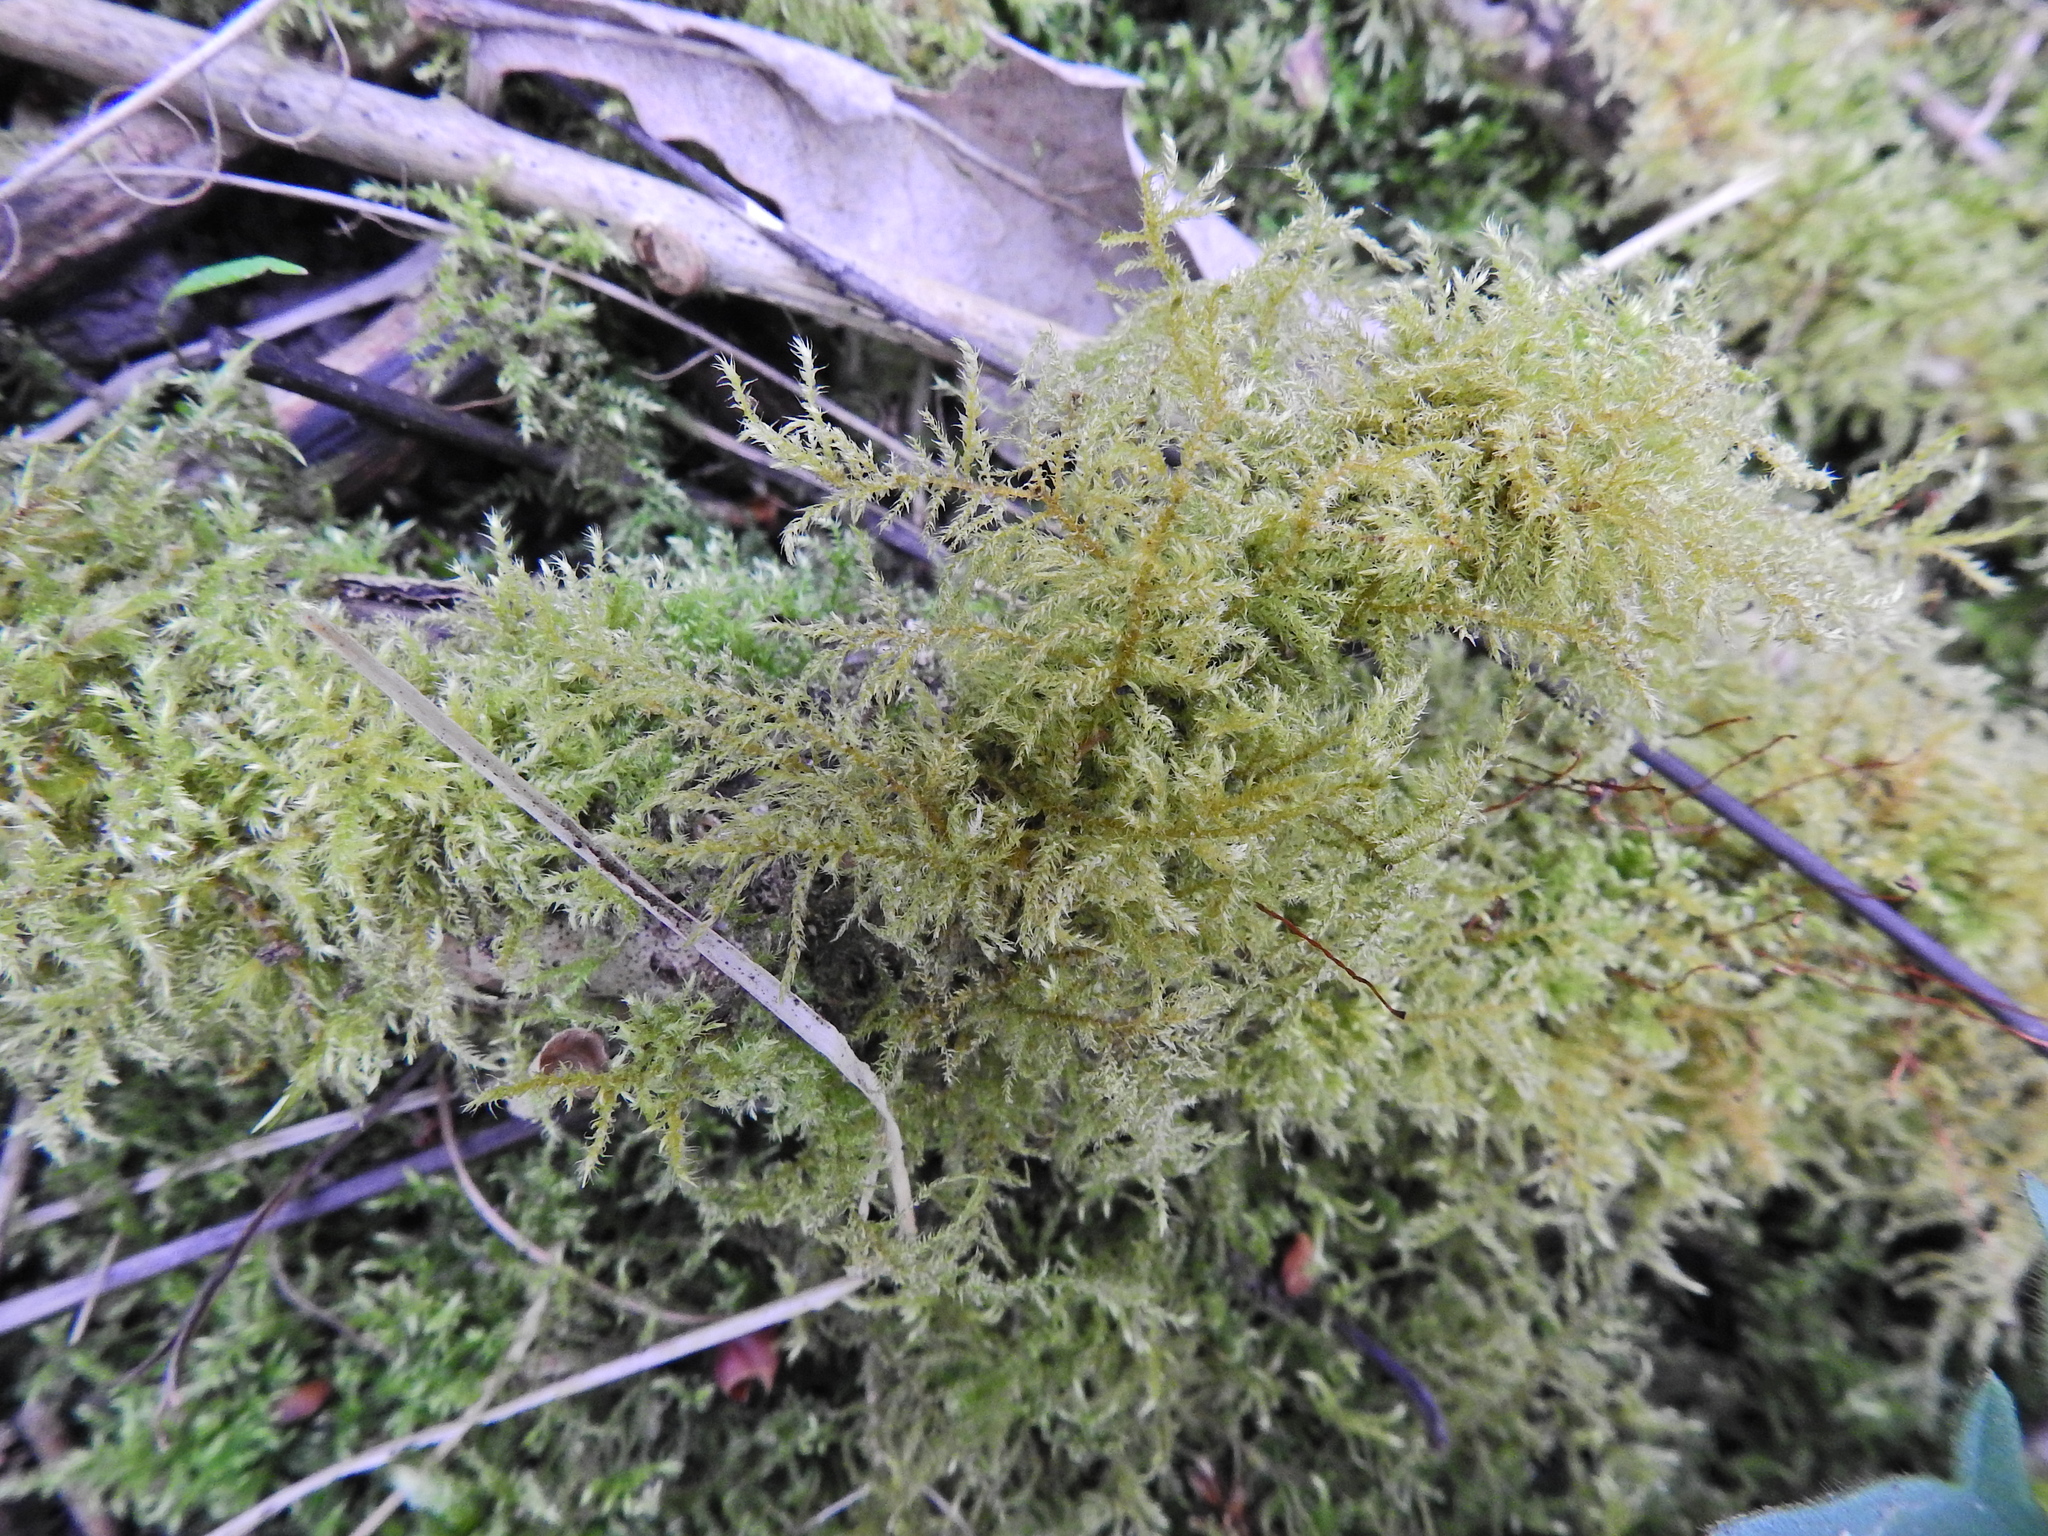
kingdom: Plantae
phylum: Bryophyta
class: Bryopsida
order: Hypnales
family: Brachytheciaceae
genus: Kindbergia
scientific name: Kindbergia praelonga
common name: Slender beaked moss
